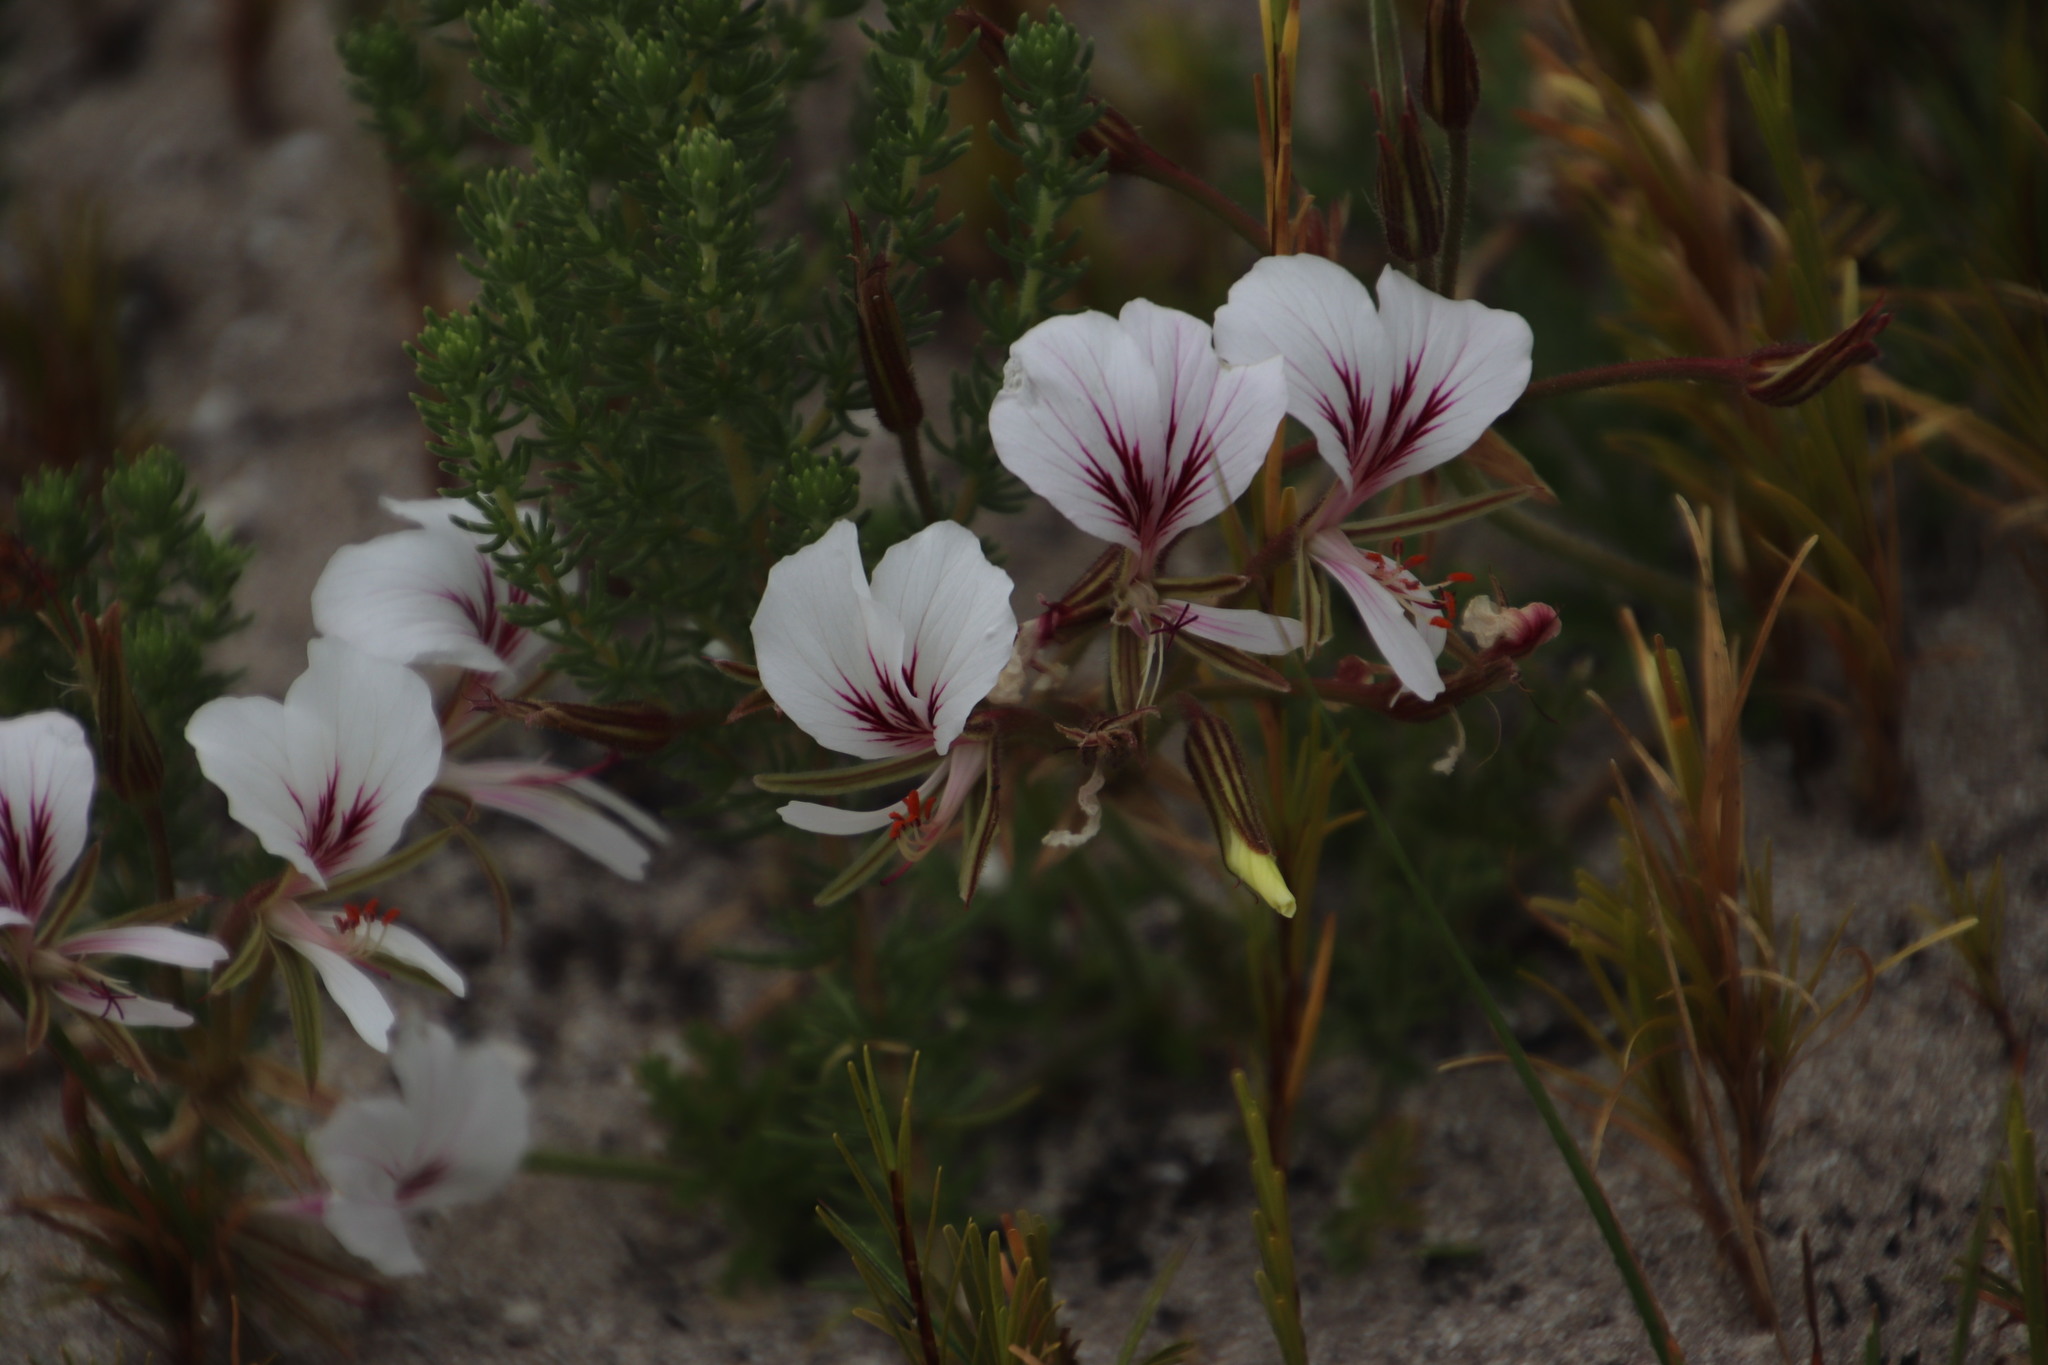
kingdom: Plantae
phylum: Tracheophyta
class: Magnoliopsida
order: Geraniales
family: Geraniaceae
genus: Pelargonium
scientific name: Pelargonium longicaule
